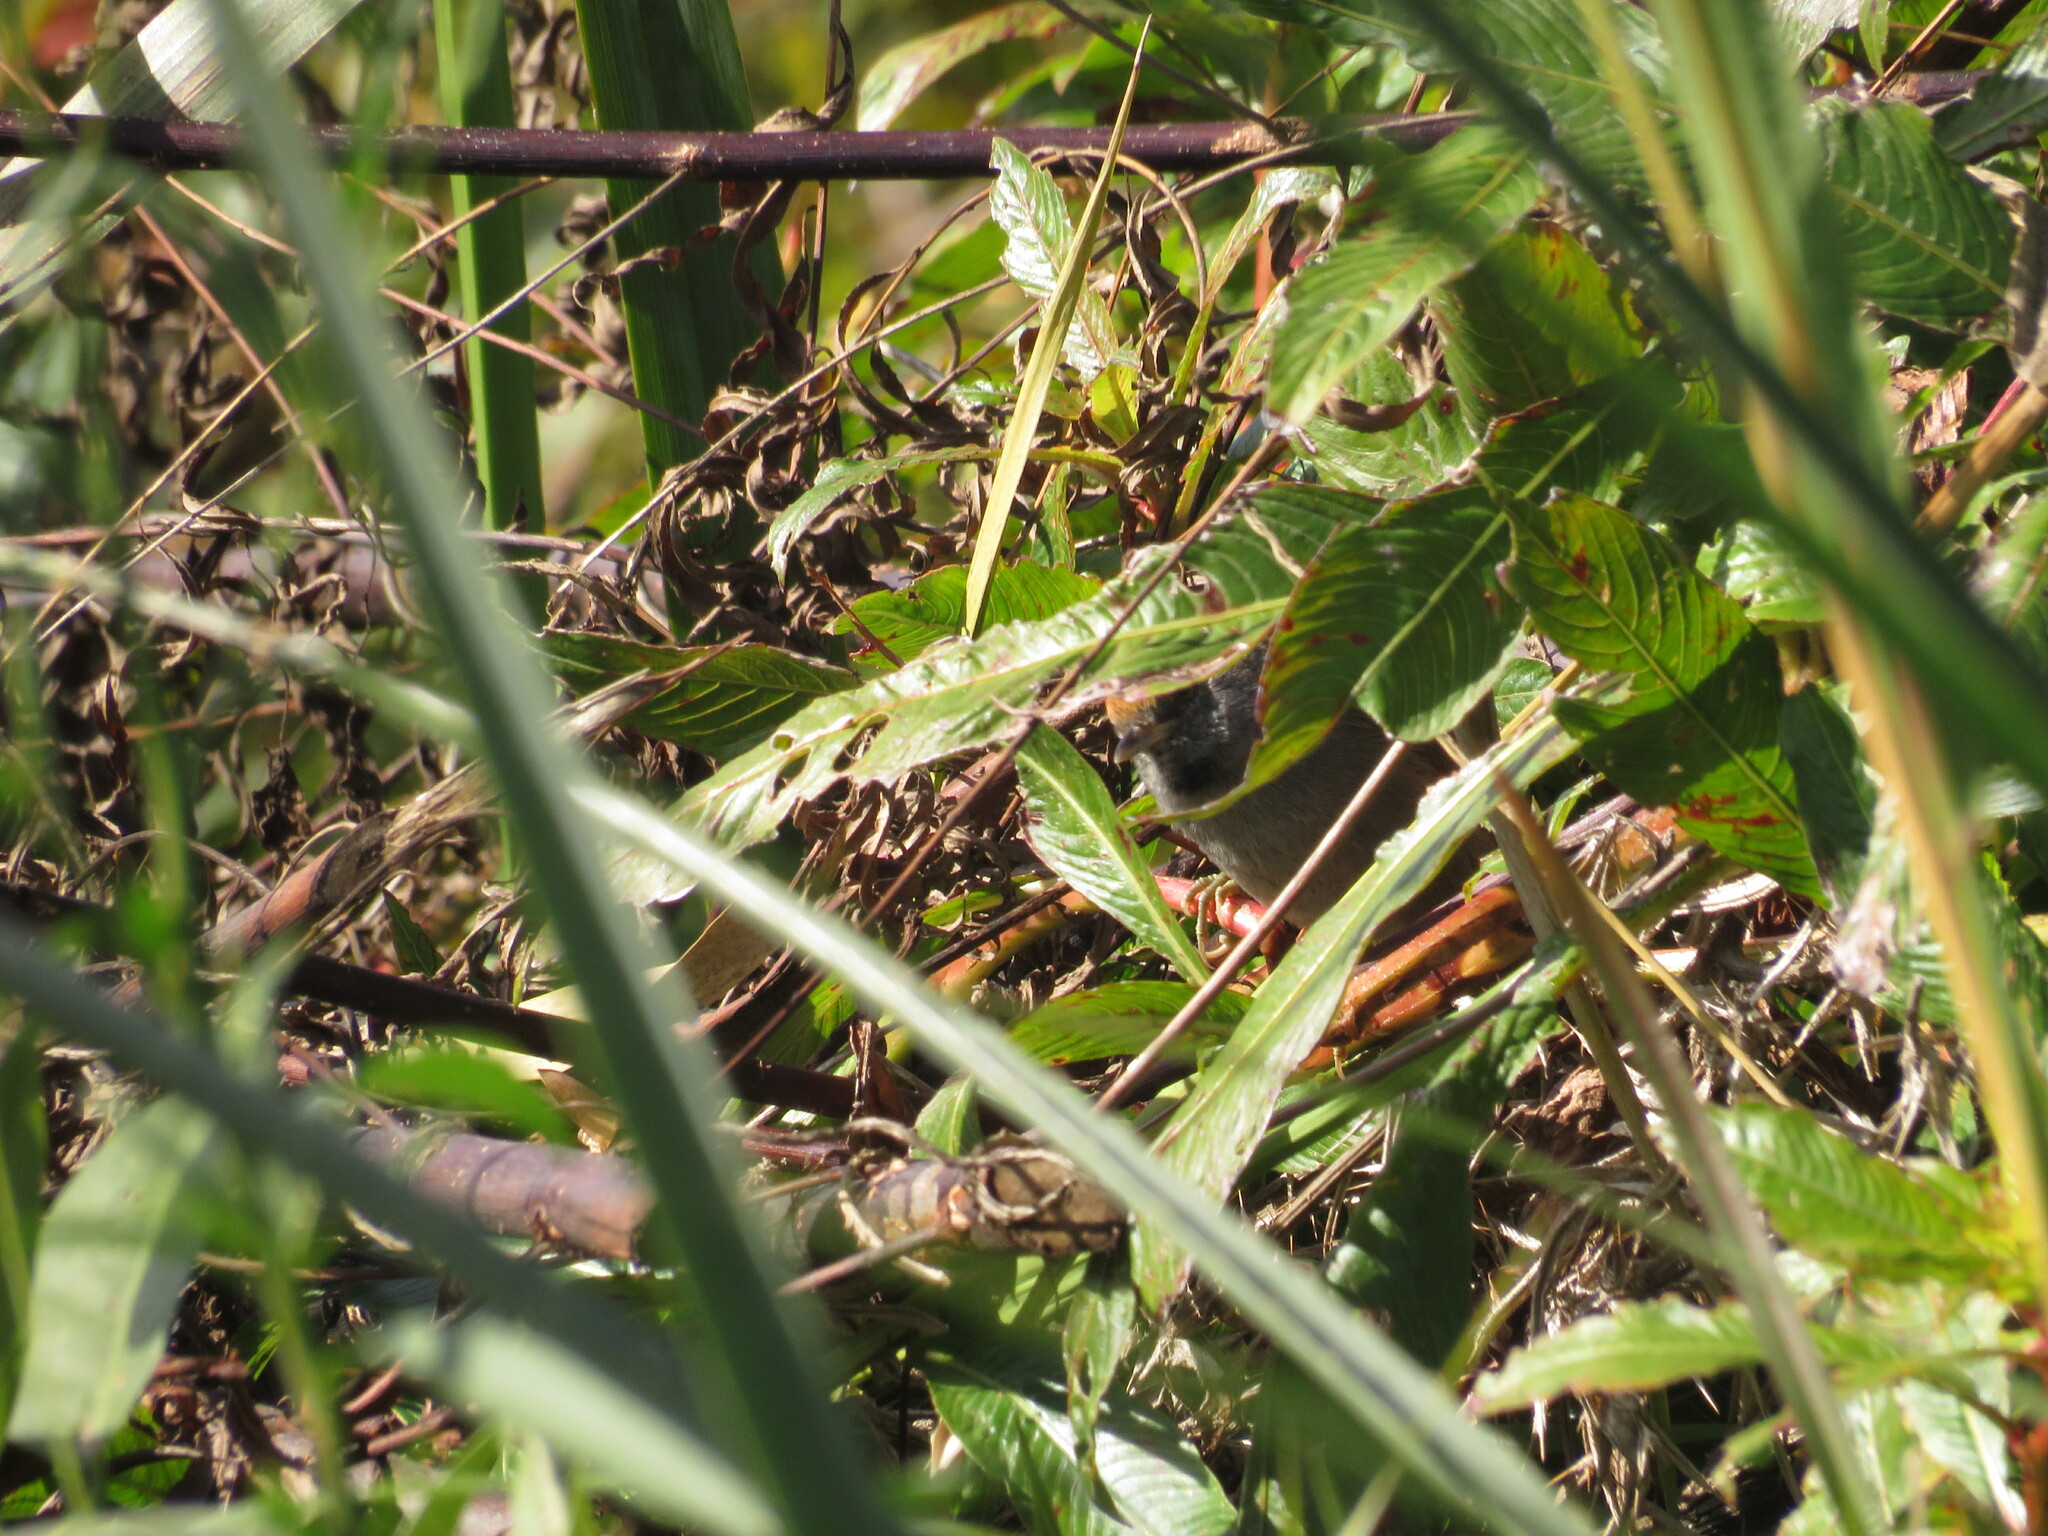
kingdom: Animalia
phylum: Chordata
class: Aves
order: Passeriformes
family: Furnariidae
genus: Synallaxis
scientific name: Synallaxis spixi
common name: Spix's spinetail
